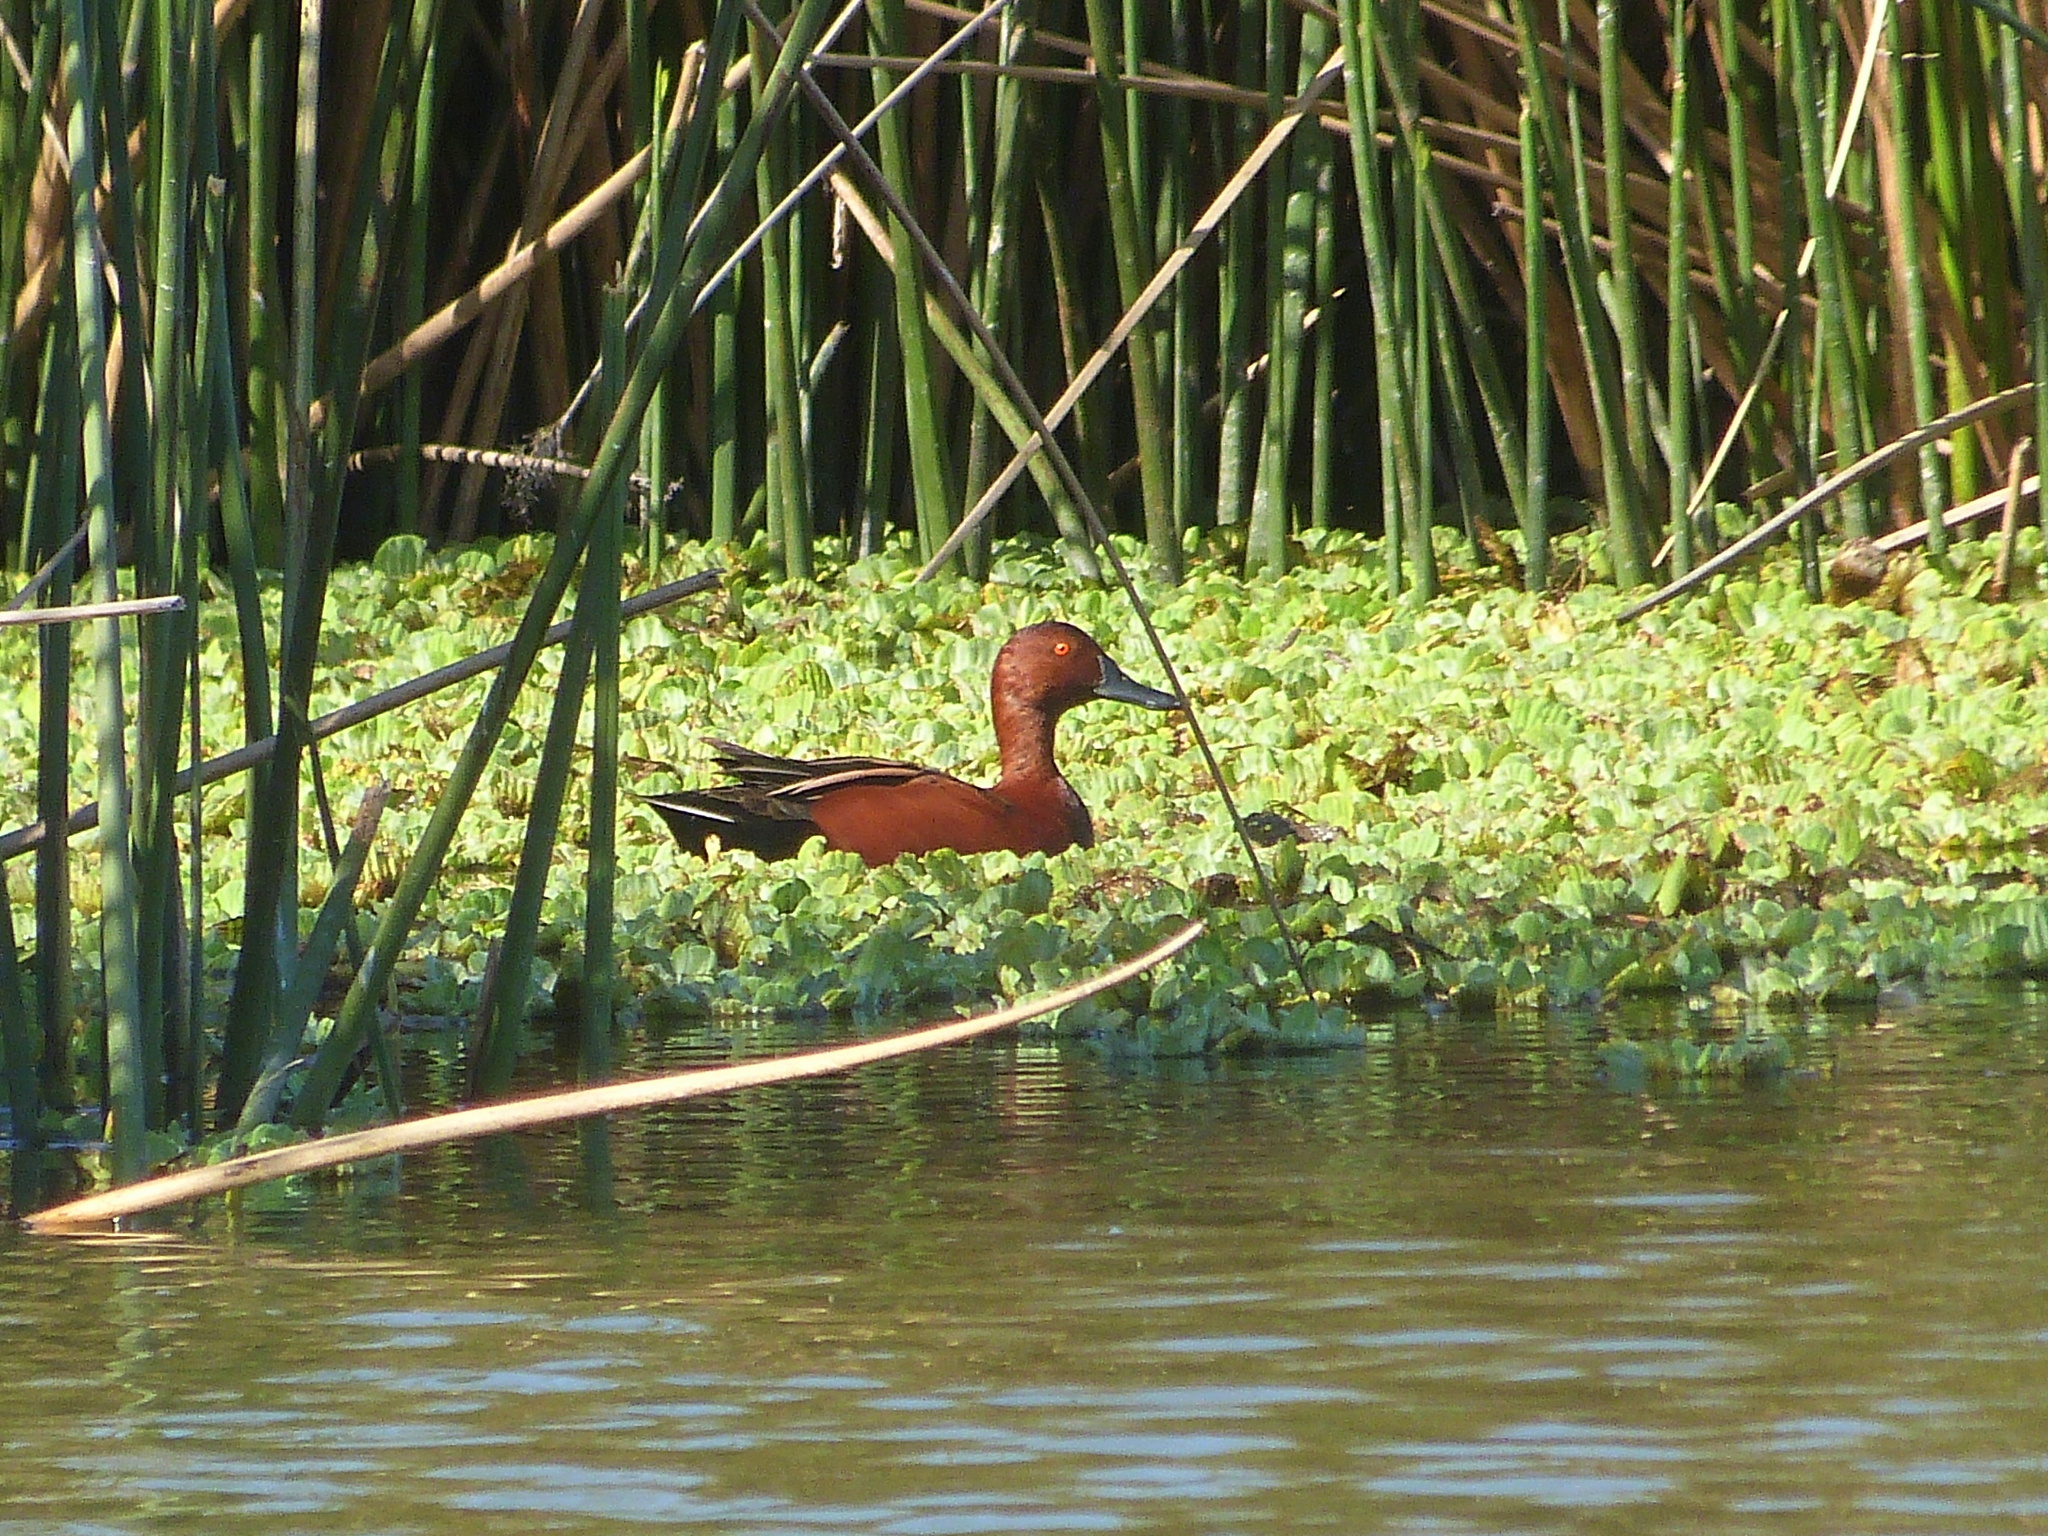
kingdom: Animalia
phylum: Chordata
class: Aves
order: Anseriformes
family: Anatidae
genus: Spatula
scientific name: Spatula cyanoptera
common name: Cinnamon teal
